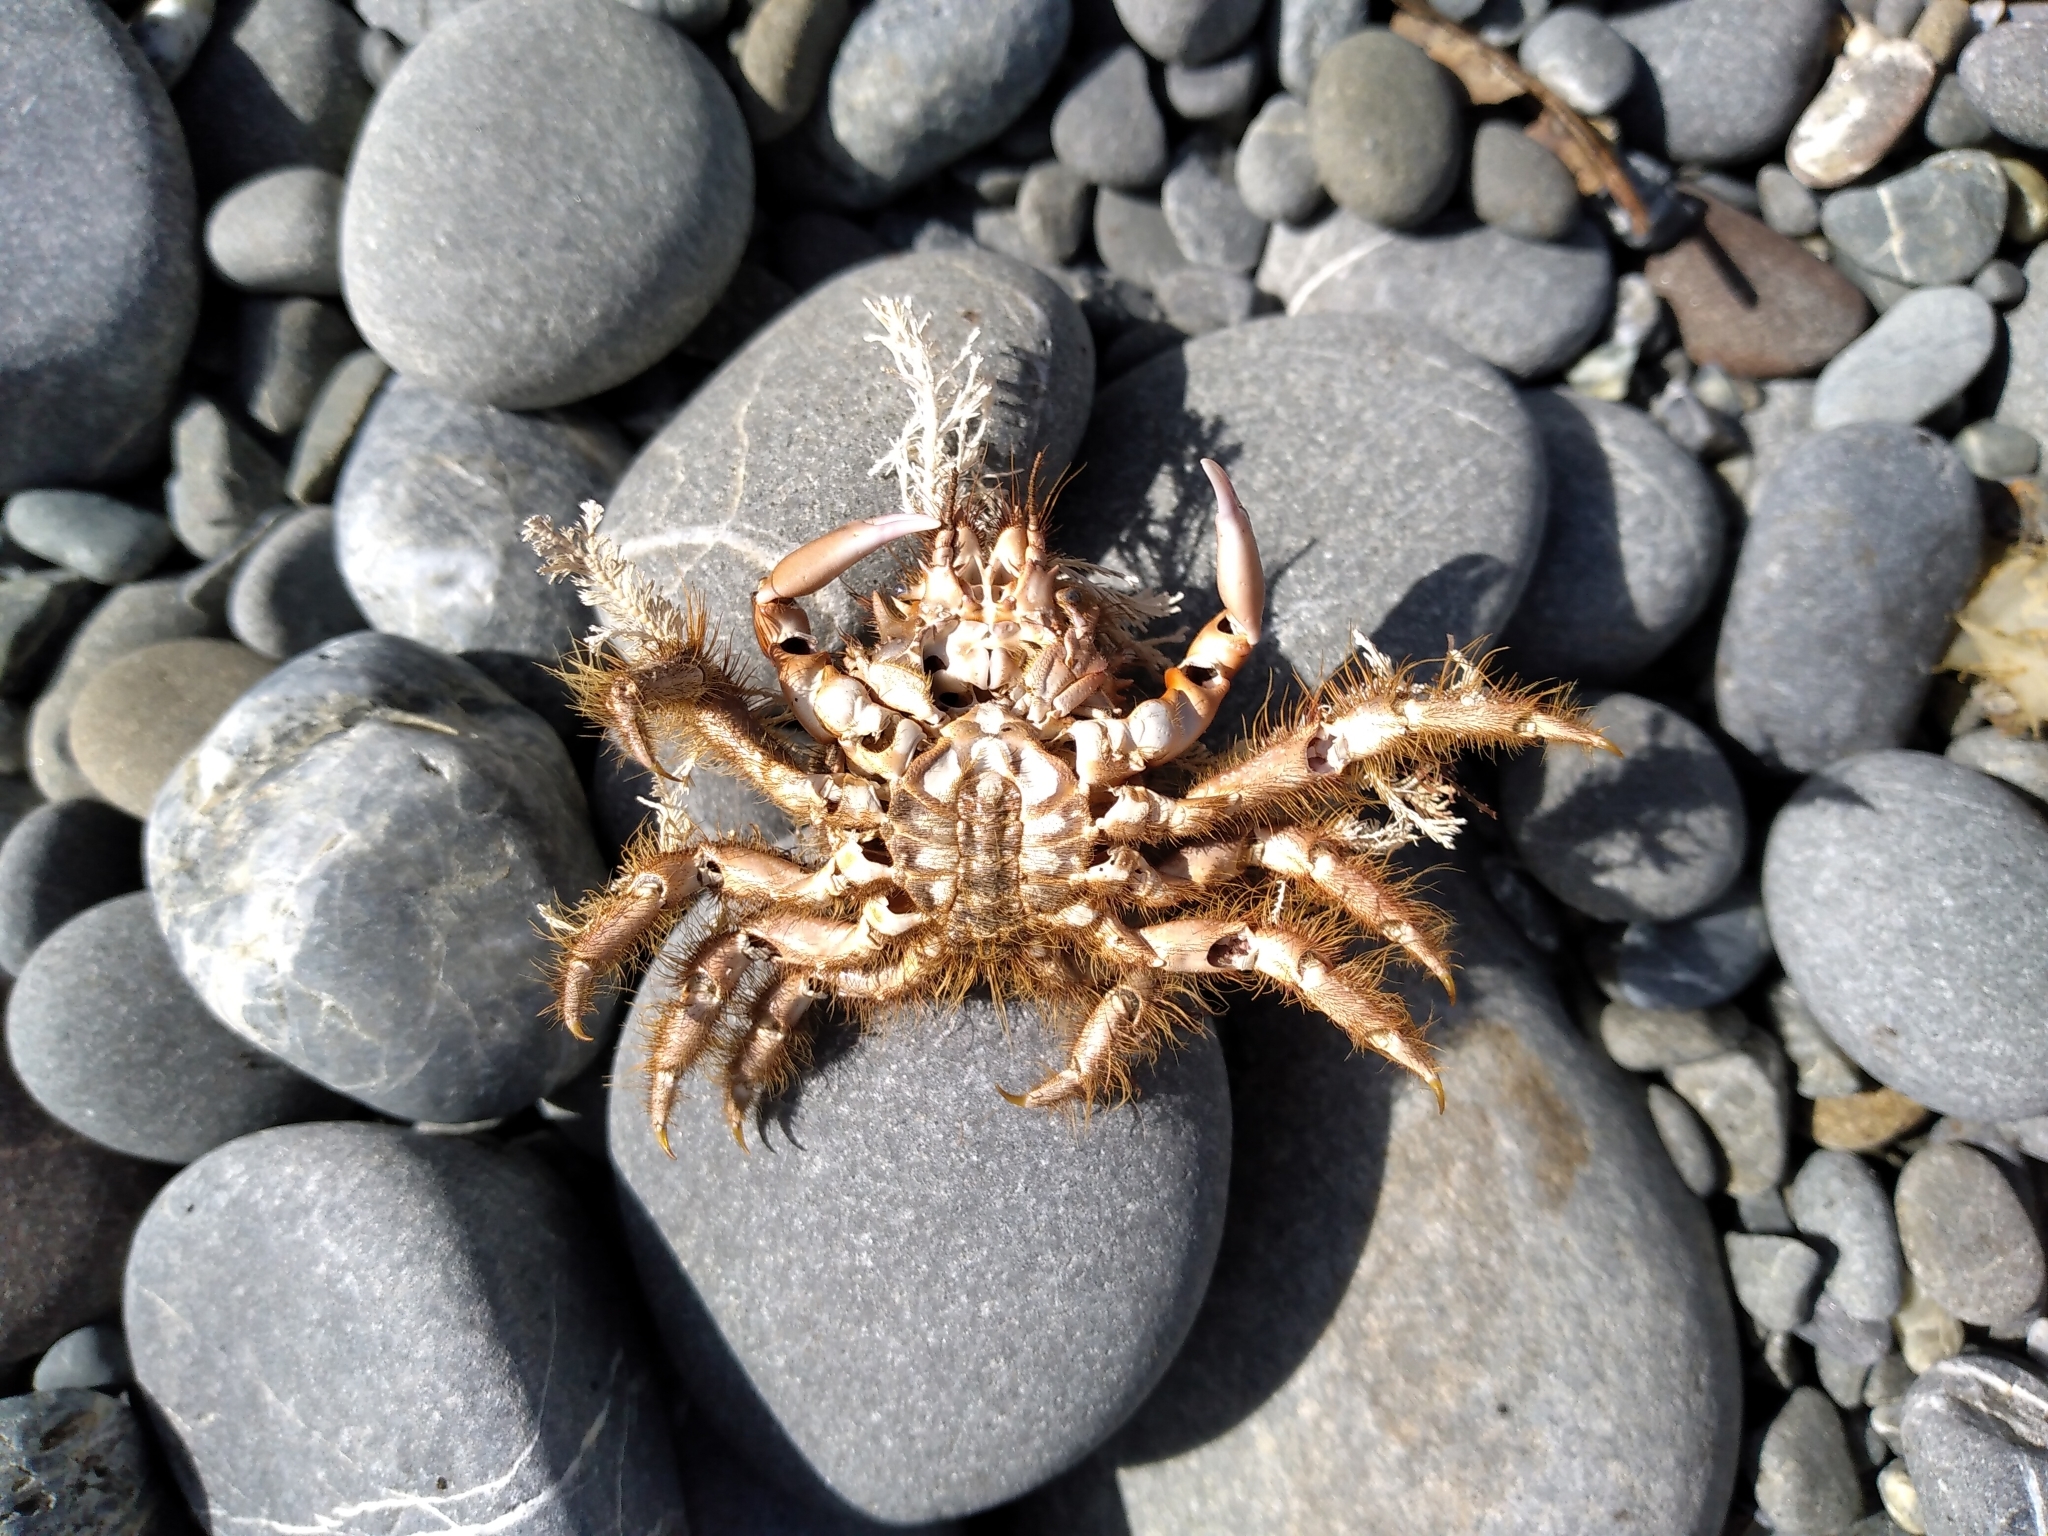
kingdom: Animalia
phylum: Arthropoda
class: Malacostraca
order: Decapoda
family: Majidae
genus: Notomithrax
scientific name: Notomithrax ursus
